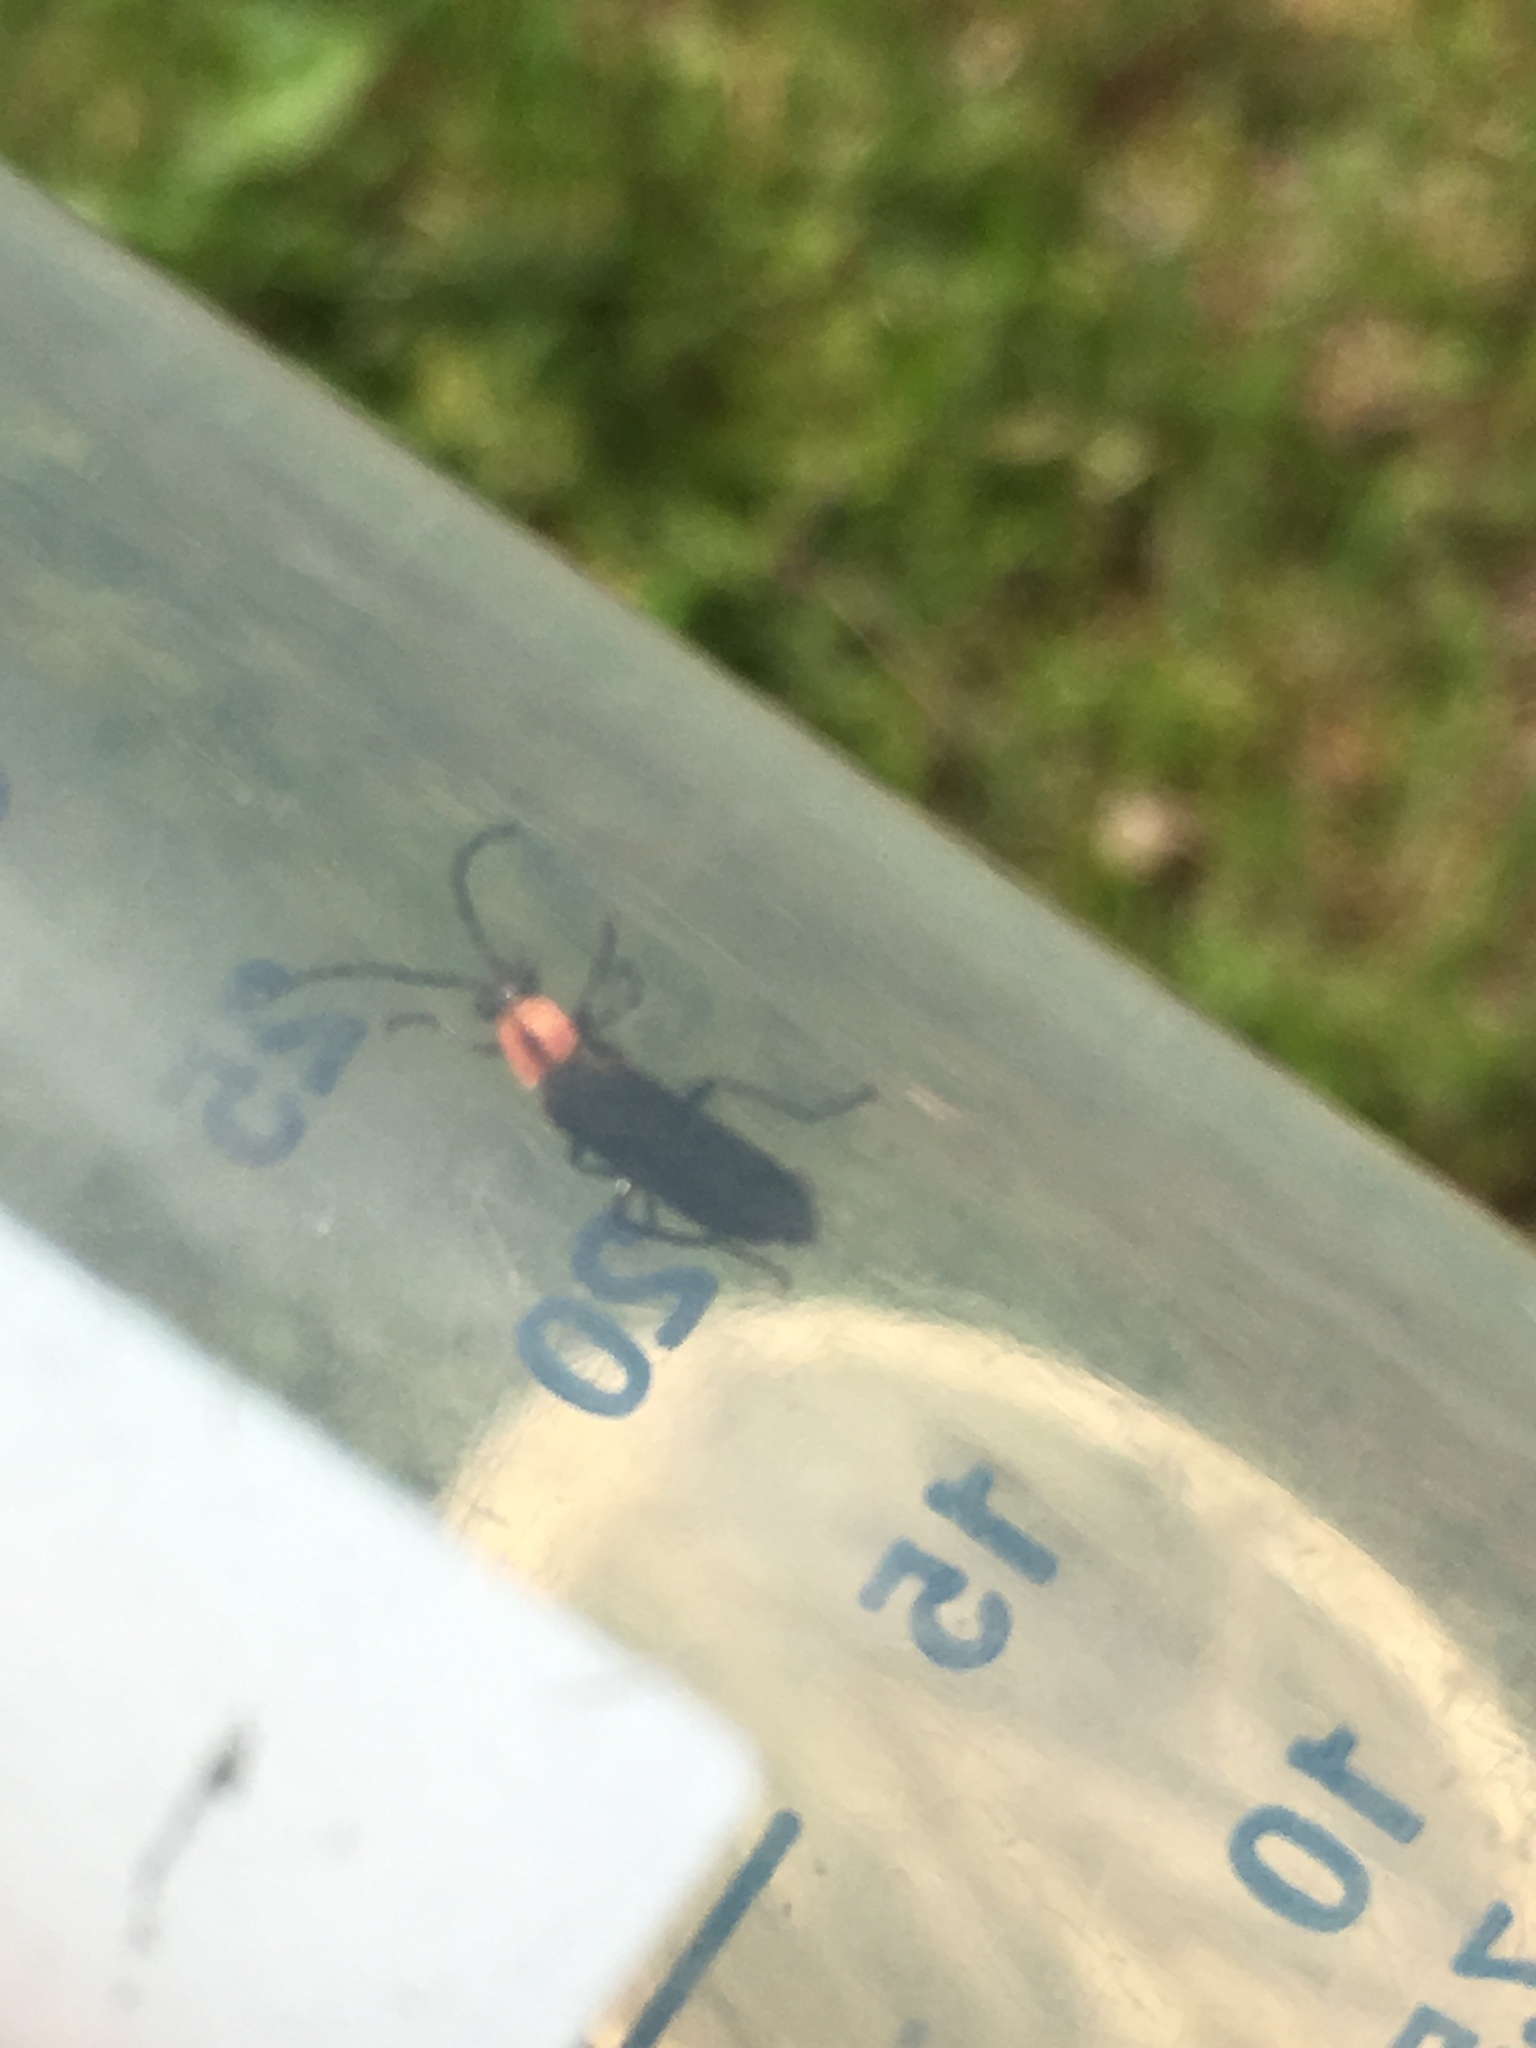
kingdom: Animalia
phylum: Arthropoda
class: Insecta
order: Coleoptera
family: Cantharidae
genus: Discodon
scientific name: Discodon planicolle
